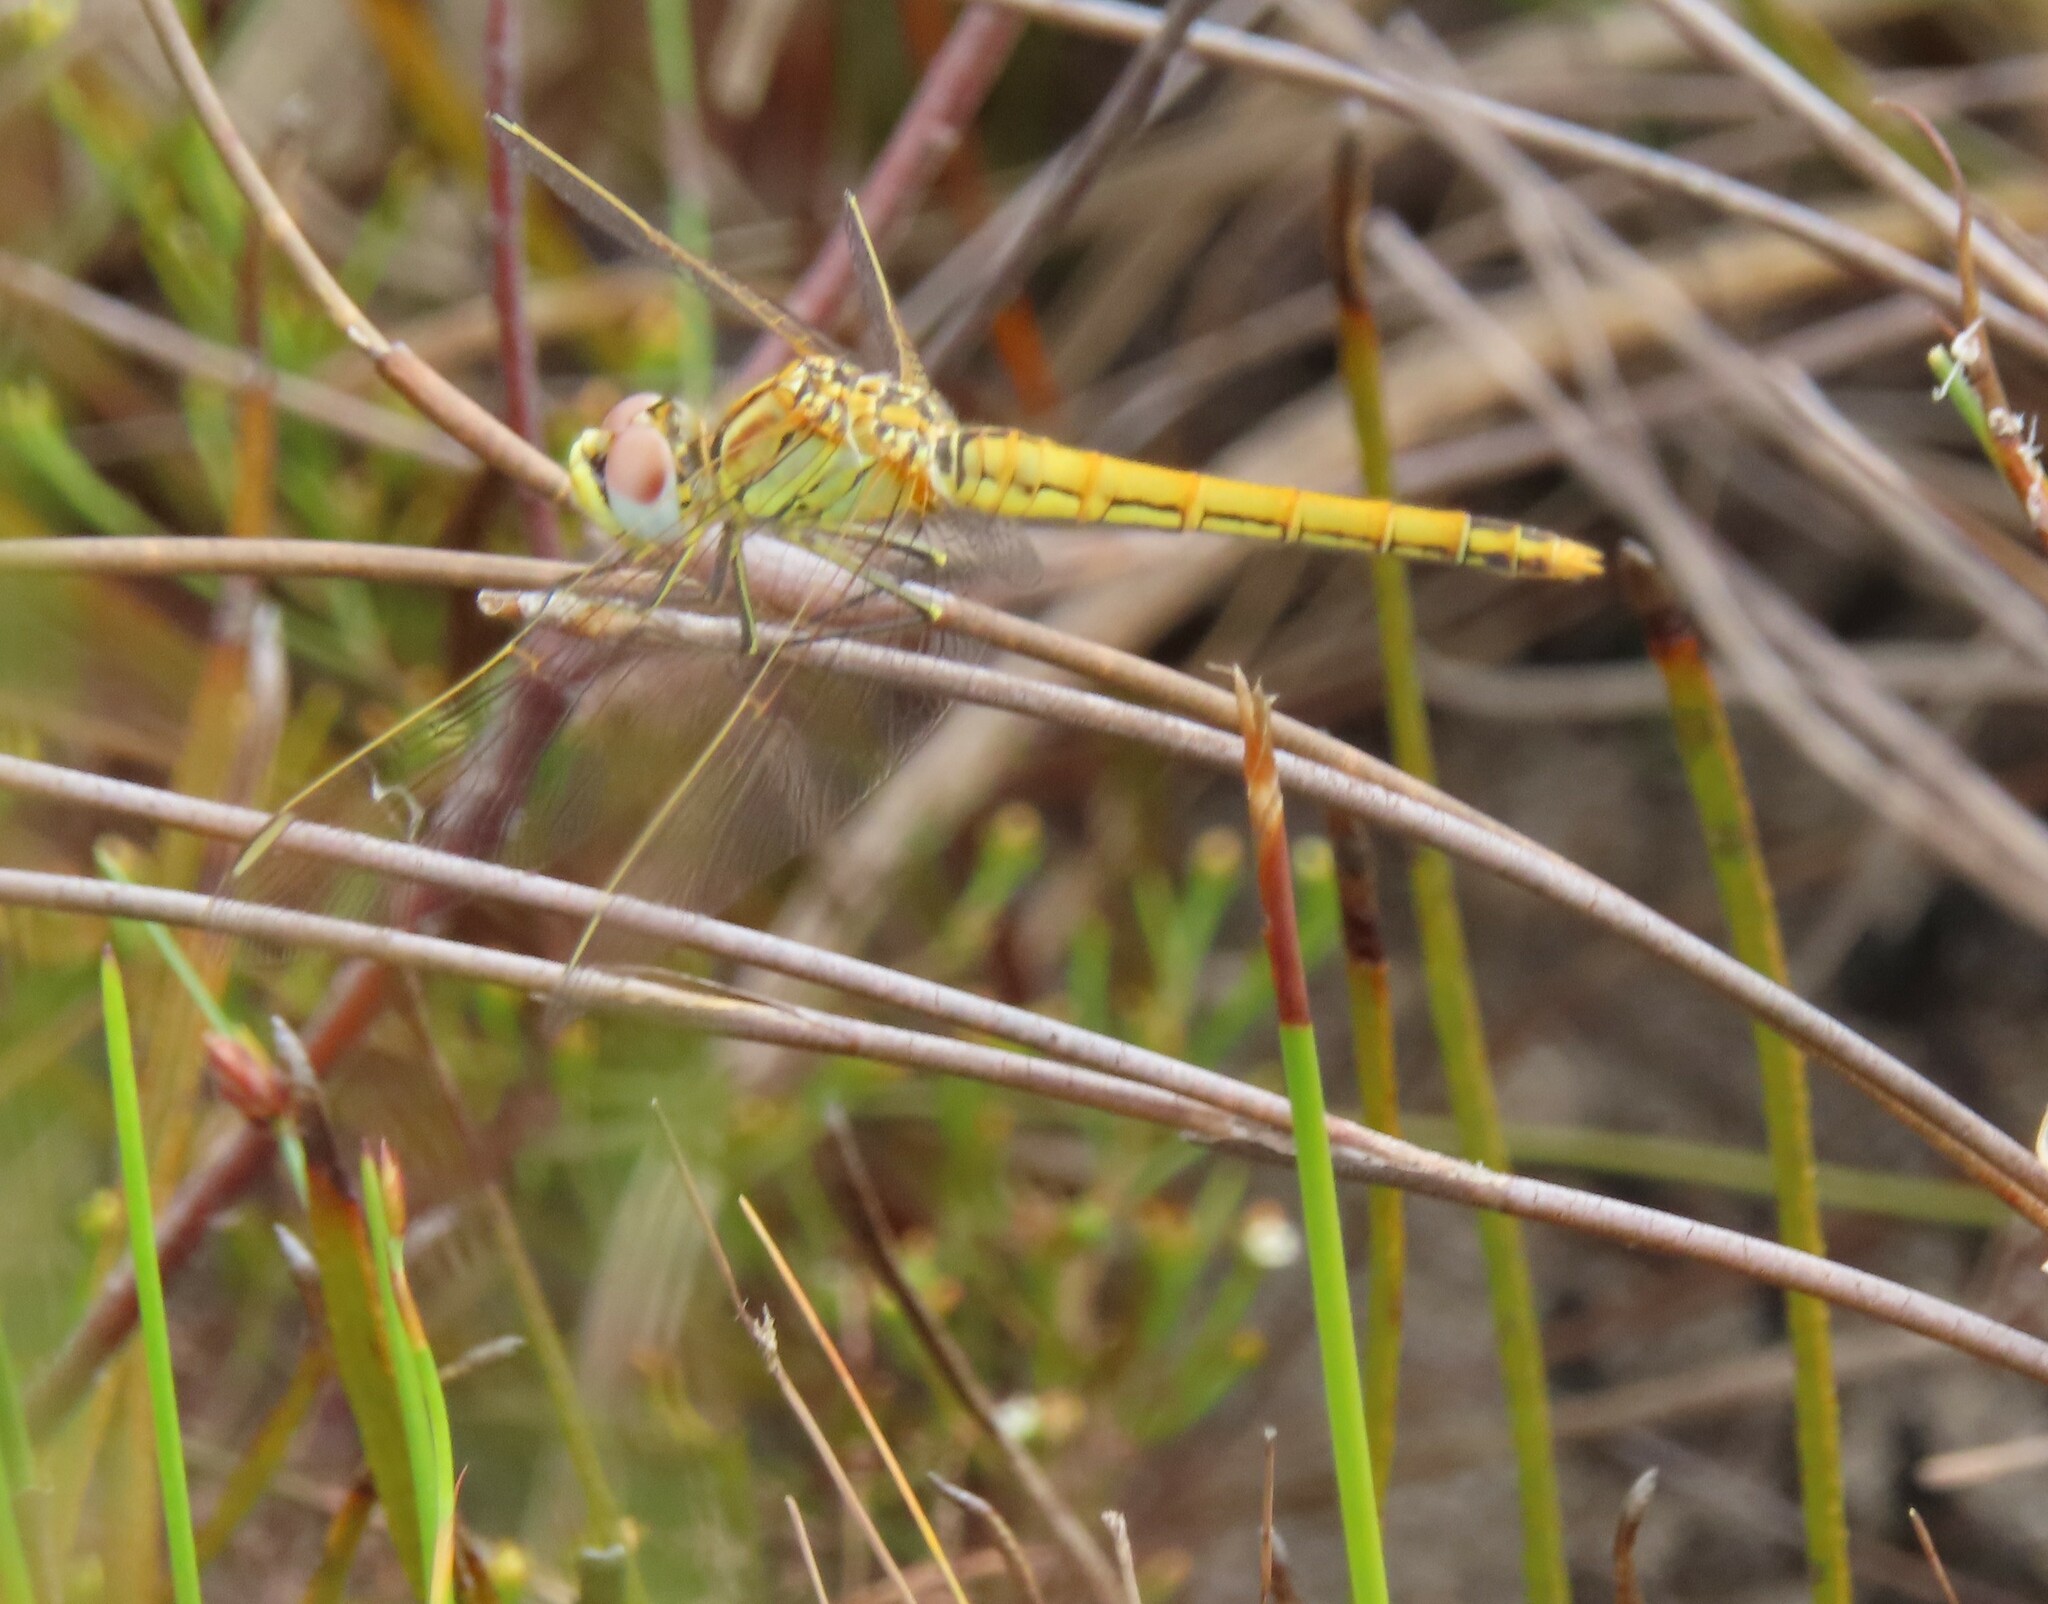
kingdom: Animalia
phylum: Arthropoda
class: Insecta
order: Odonata
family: Libellulidae
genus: Sympetrum
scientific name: Sympetrum fonscolombii
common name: Red-veined darter
